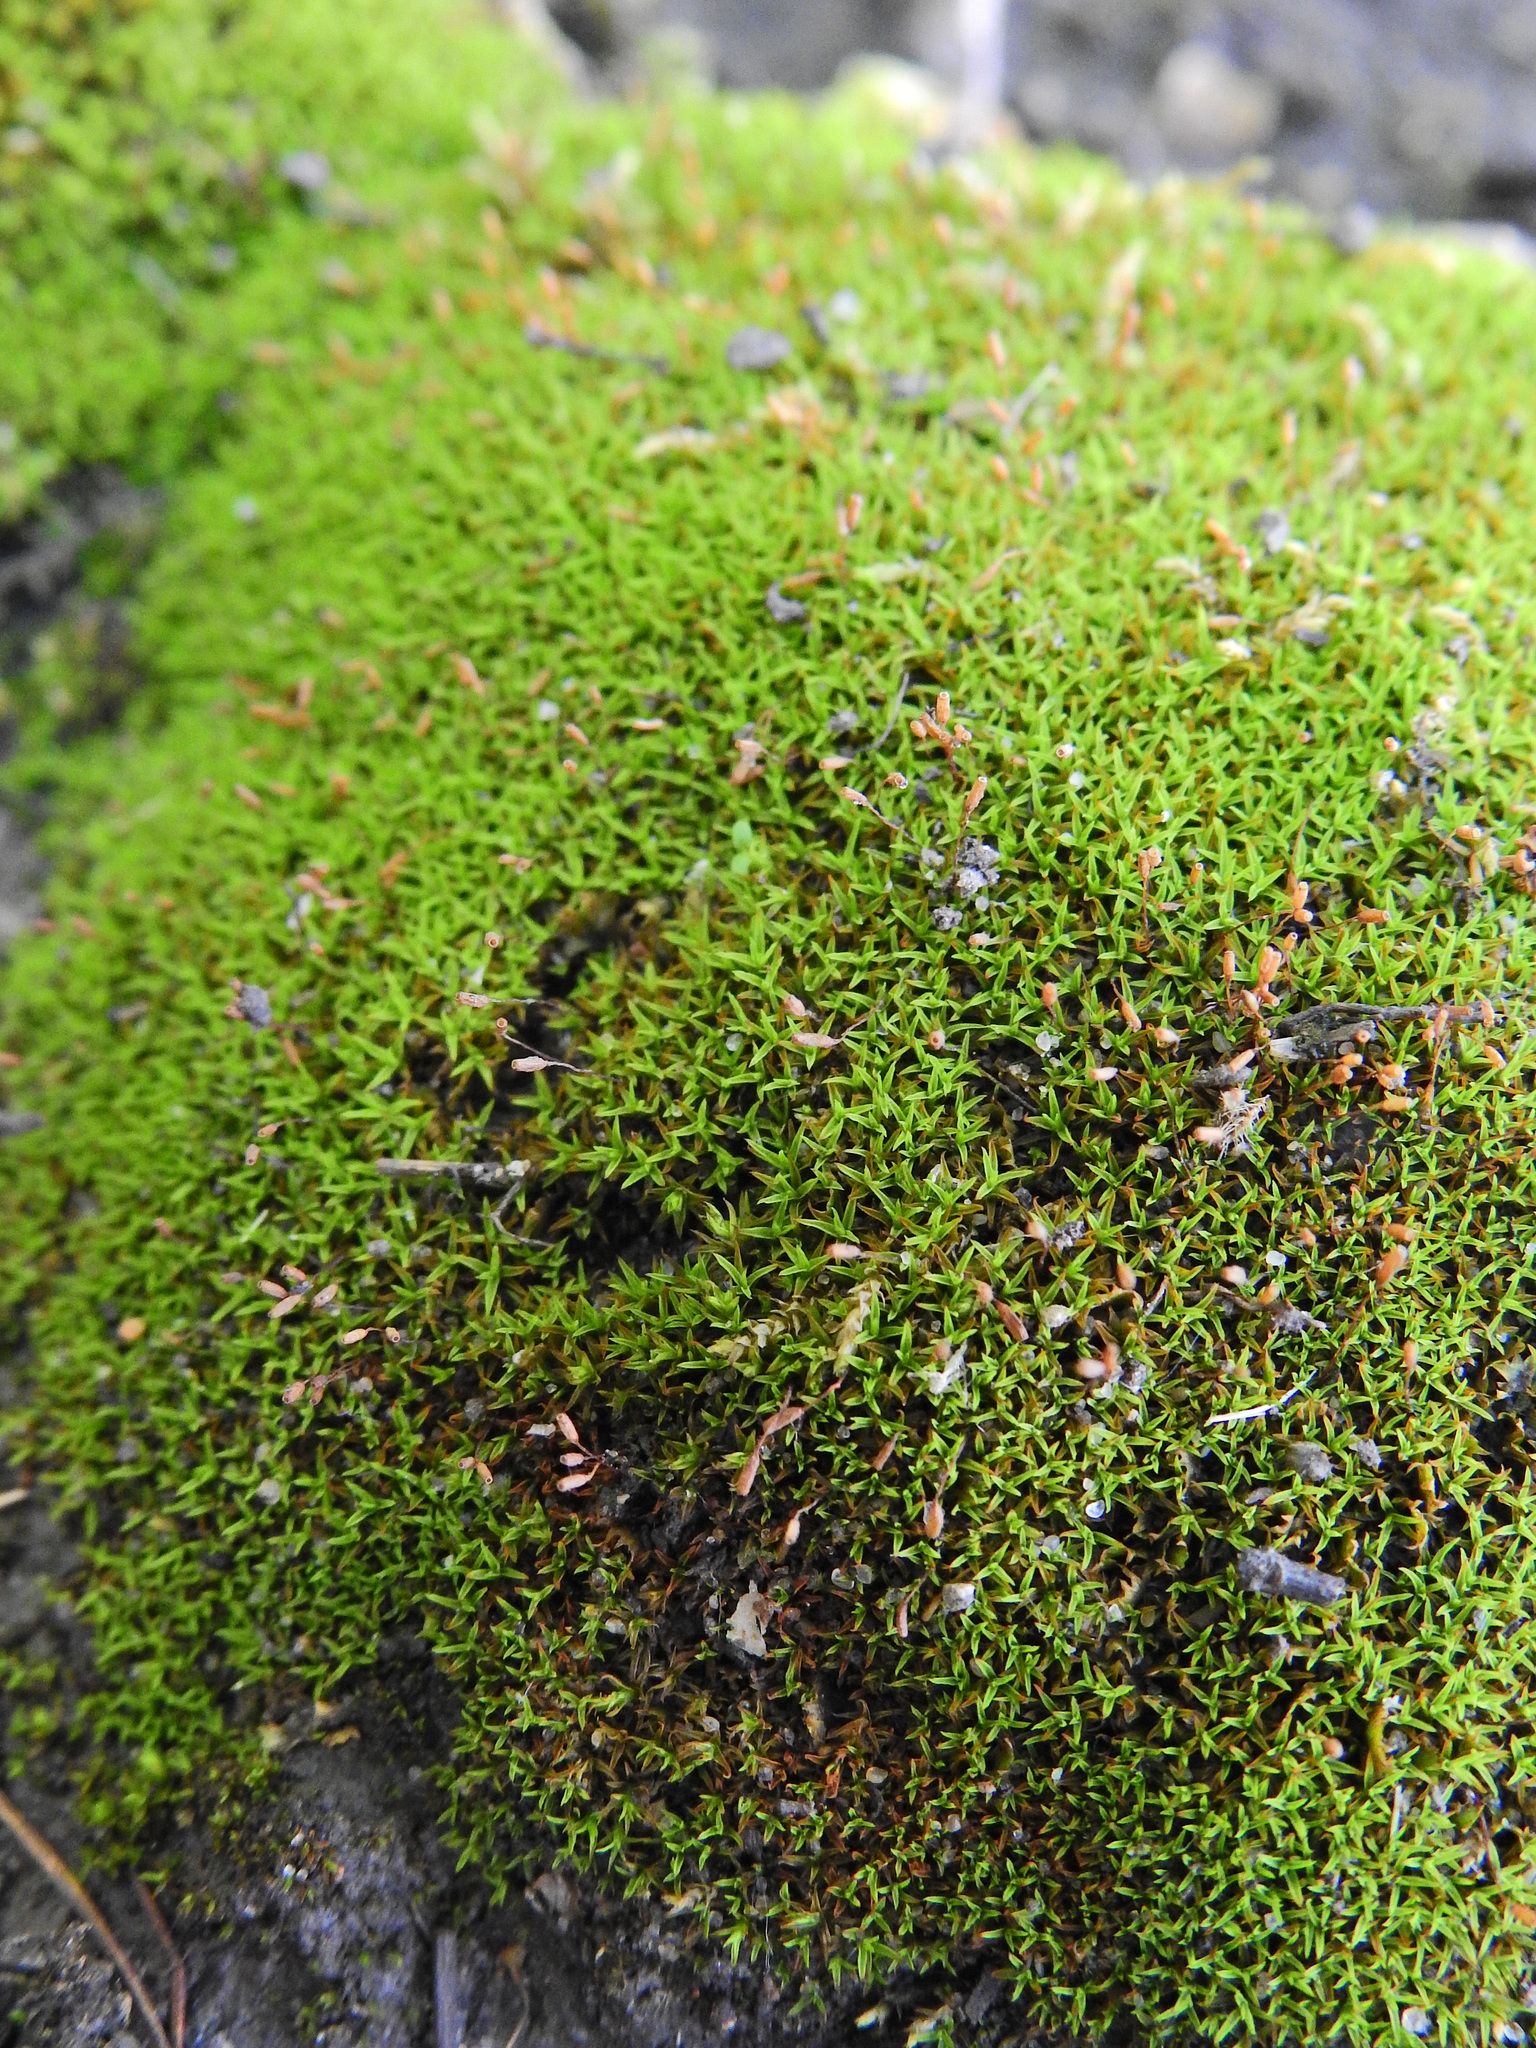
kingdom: Plantae
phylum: Bryophyta
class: Bryopsida
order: Pottiales
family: Pottiaceae
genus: Bryoerythrophyllum
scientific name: Bryoerythrophyllum recurvirostrum
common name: Red beard moss
